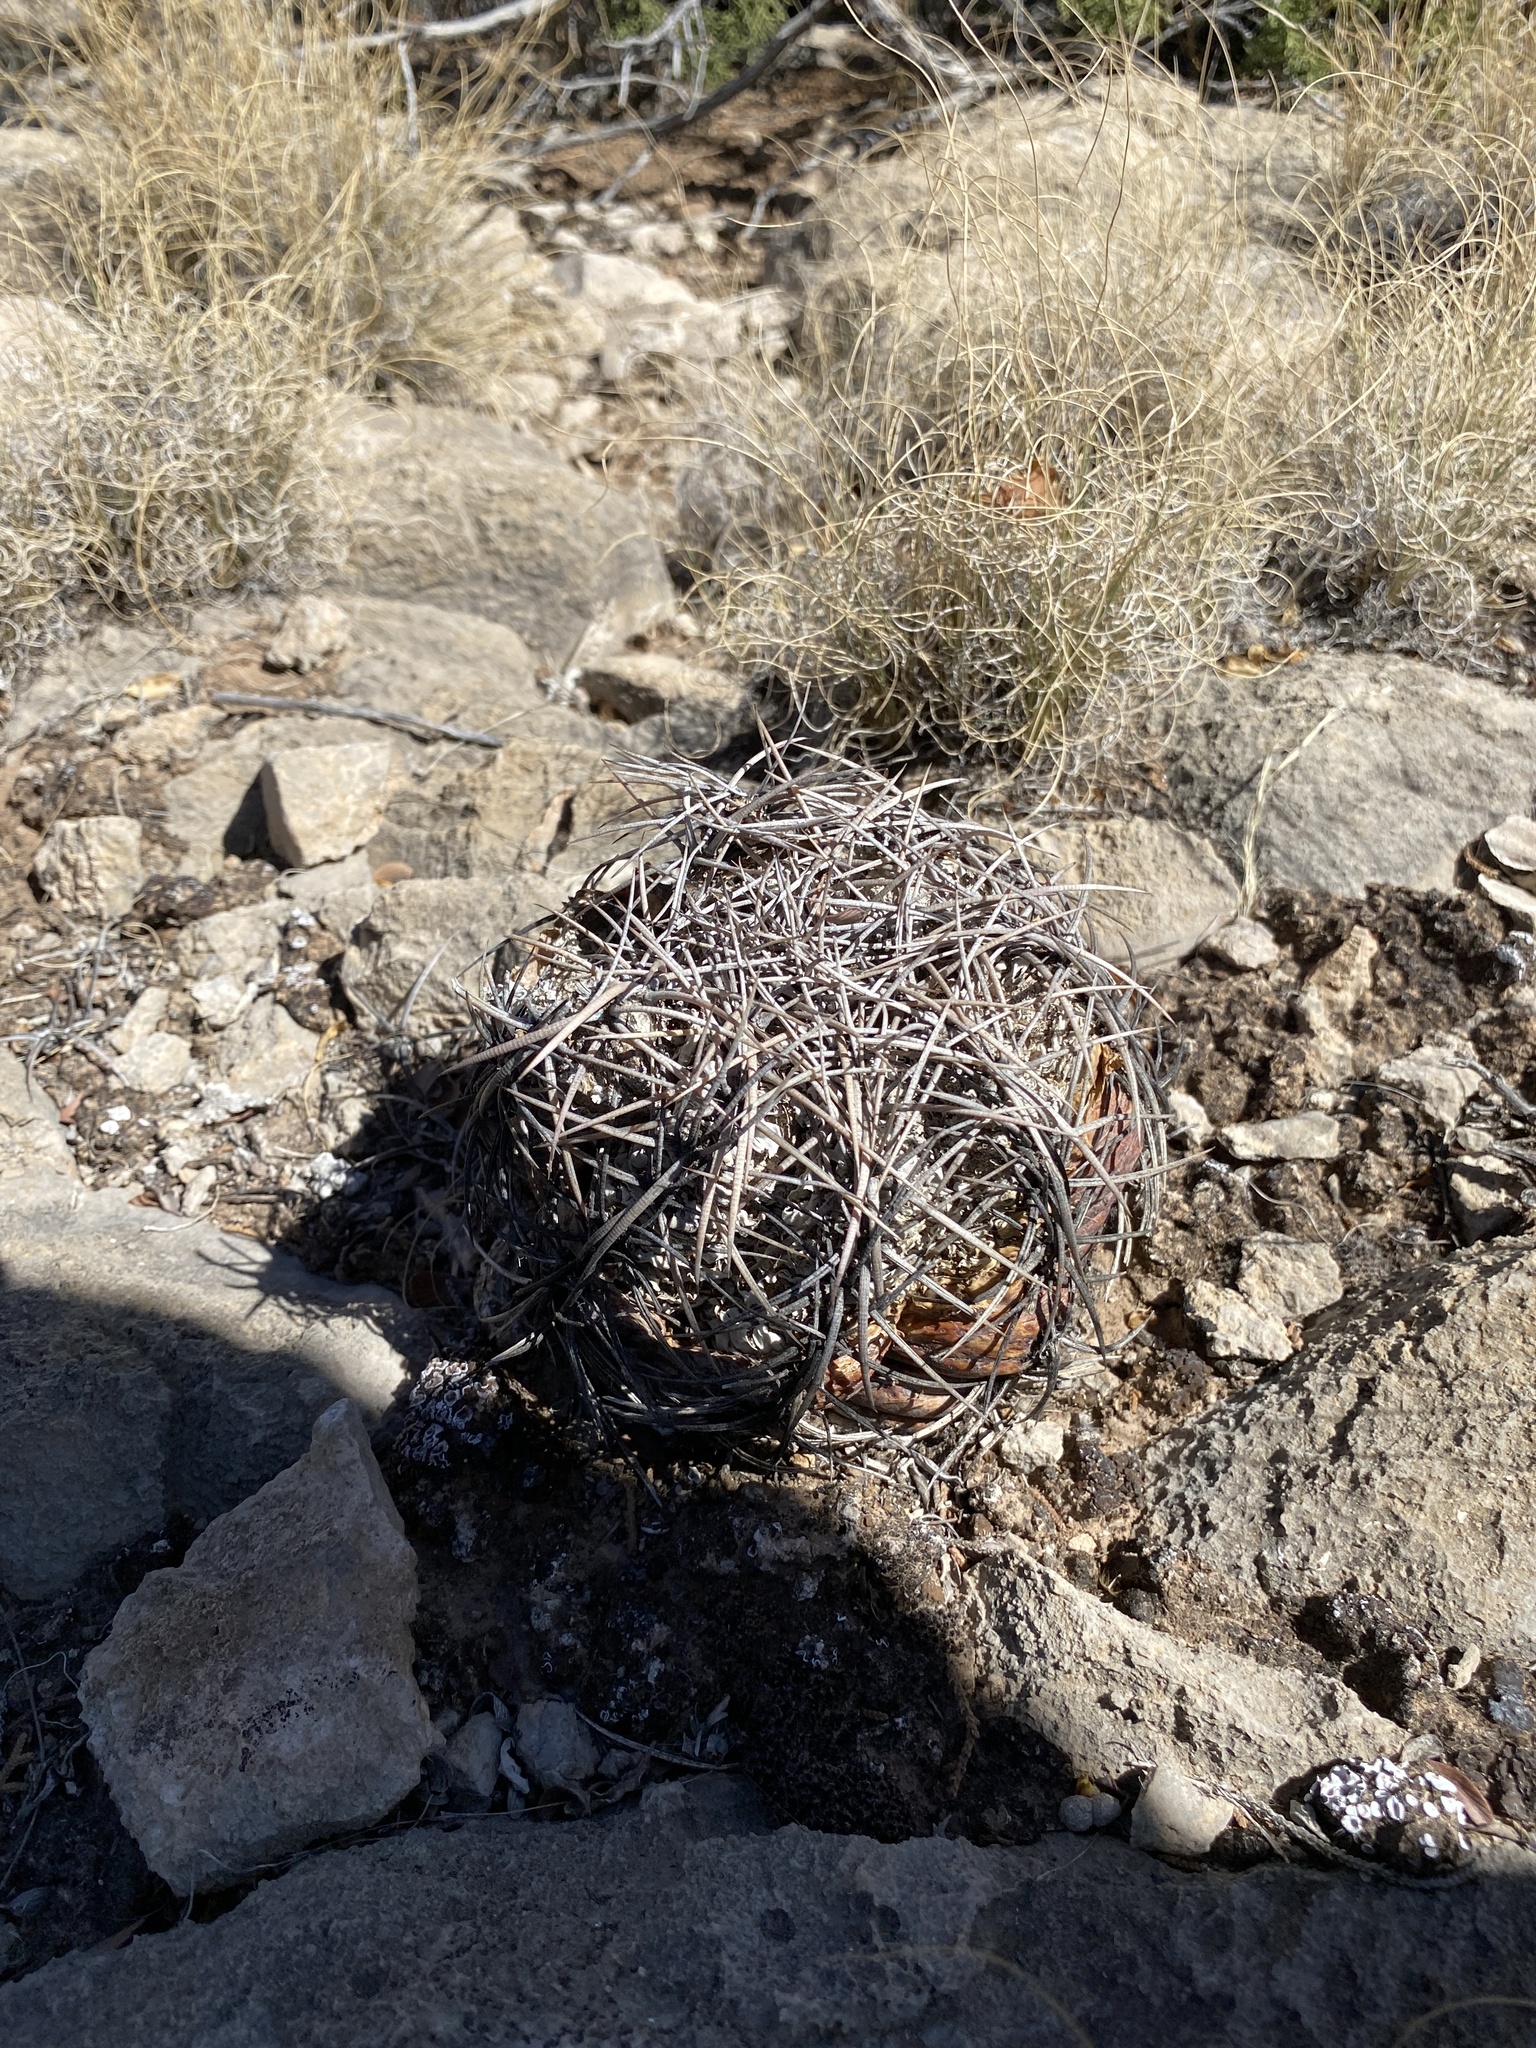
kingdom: Plantae
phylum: Tracheophyta
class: Magnoliopsida
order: Caryophyllales
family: Cactaceae
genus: Echinocactus
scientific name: Echinocactus horizonthalonius
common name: Devilshead
